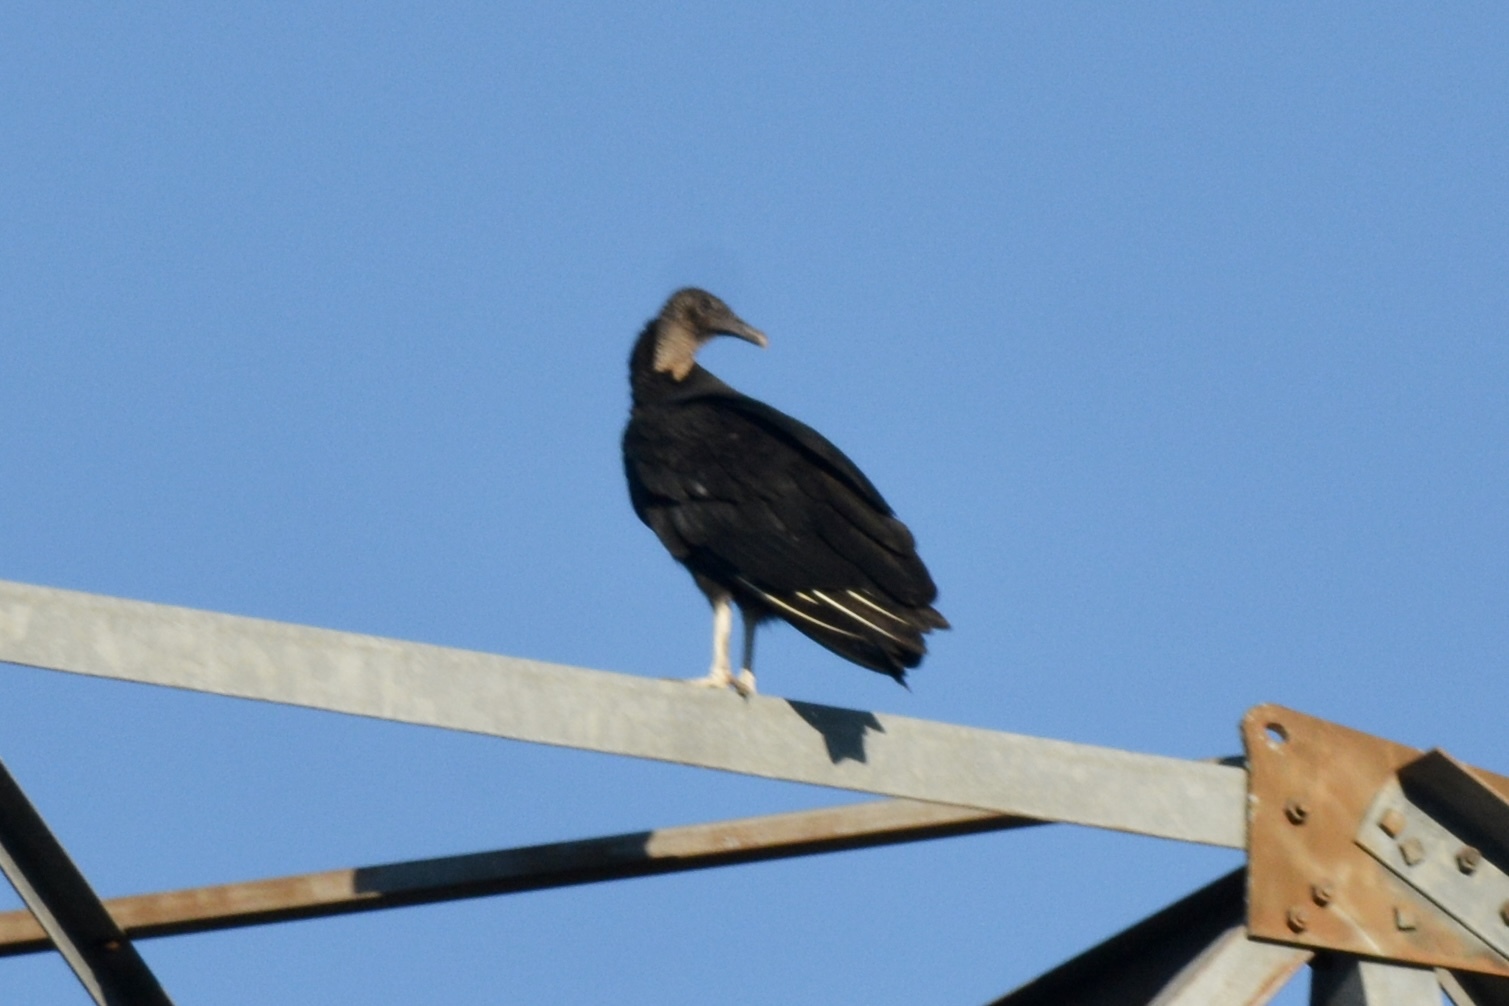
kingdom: Animalia
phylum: Chordata
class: Aves
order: Accipitriformes
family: Cathartidae
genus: Coragyps
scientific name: Coragyps atratus
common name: Black vulture
